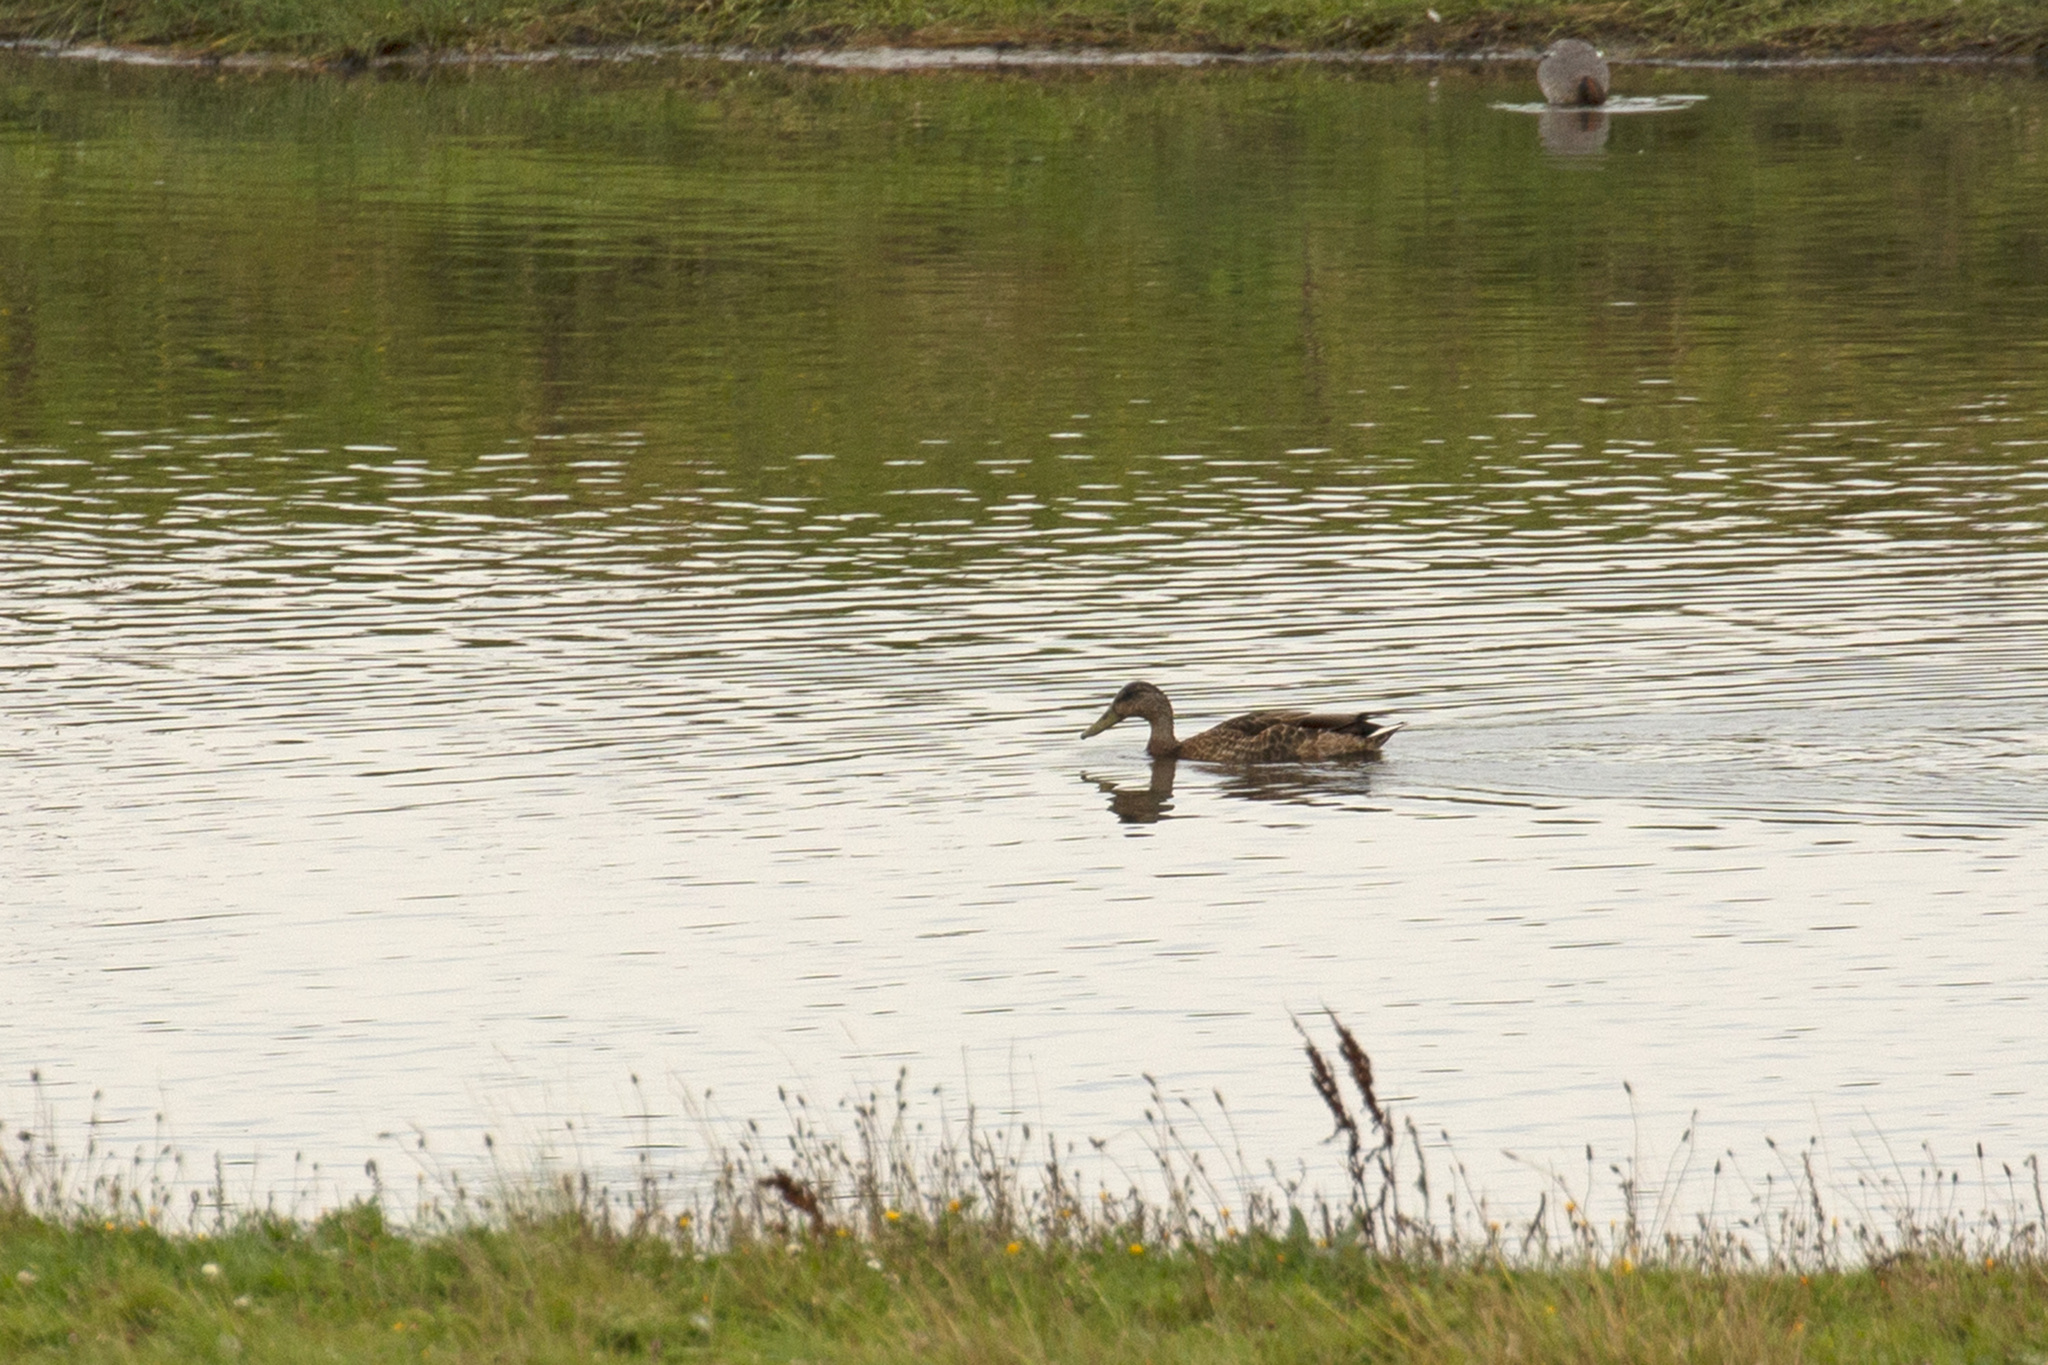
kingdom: Animalia
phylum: Chordata
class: Aves
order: Anseriformes
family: Anatidae
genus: Anas
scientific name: Anas platyrhynchos
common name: Mallard
